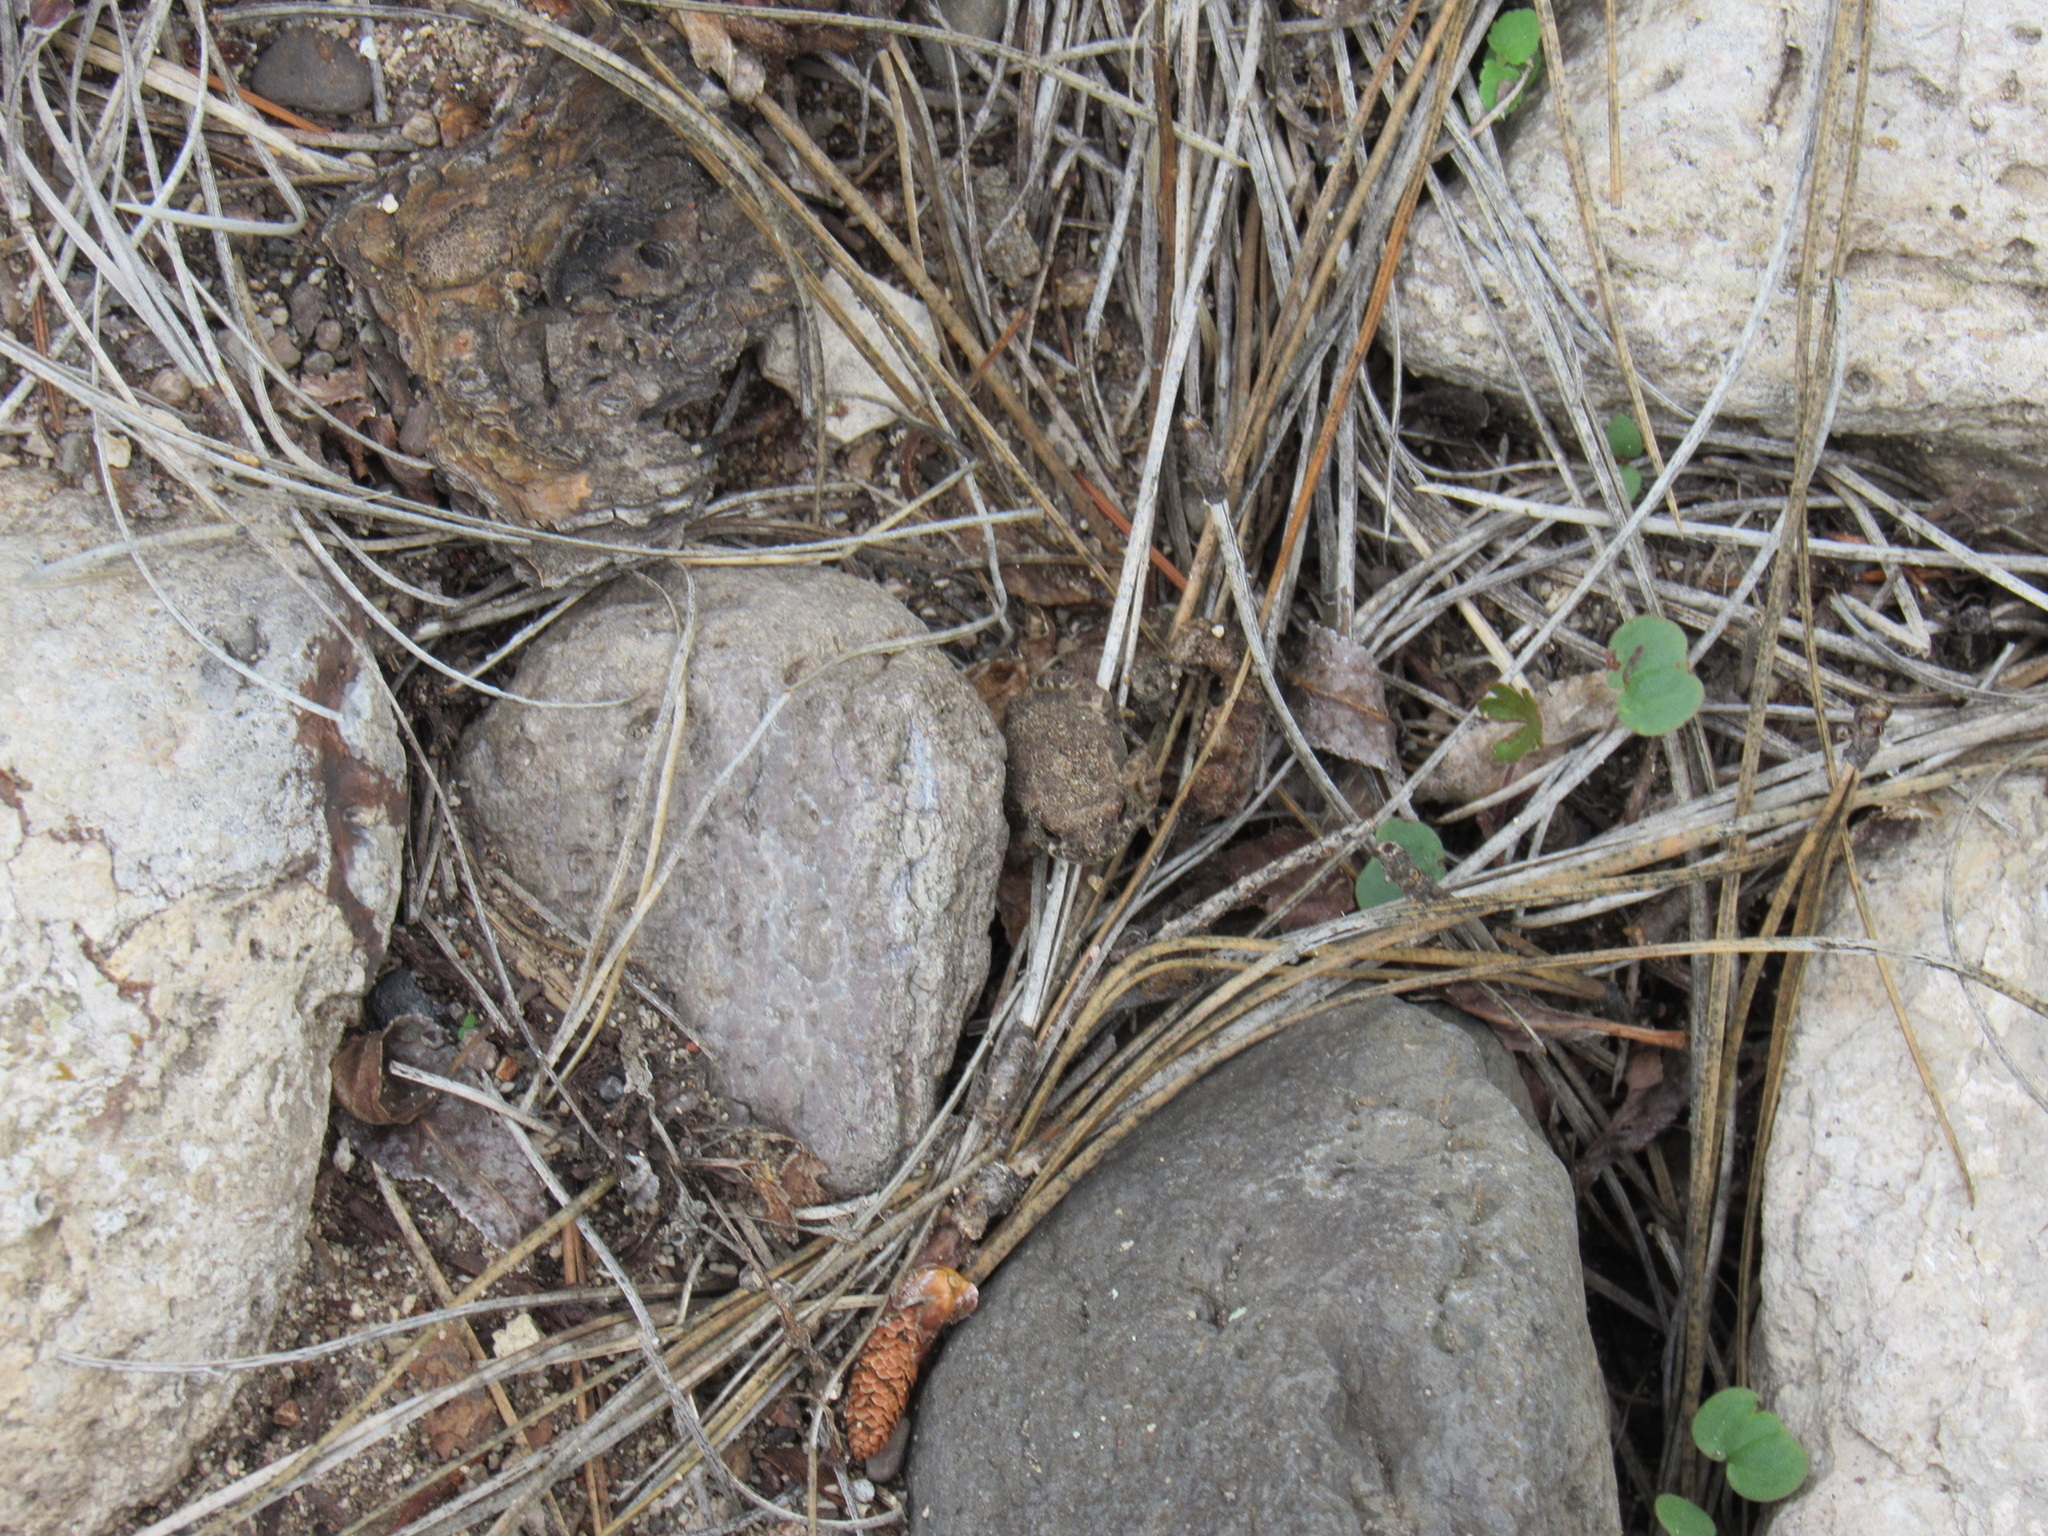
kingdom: Animalia
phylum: Chordata
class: Amphibia
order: Anura
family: Bufonidae
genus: Anaxyrus
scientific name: Anaxyrus microscaphus
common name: Arizona toad
